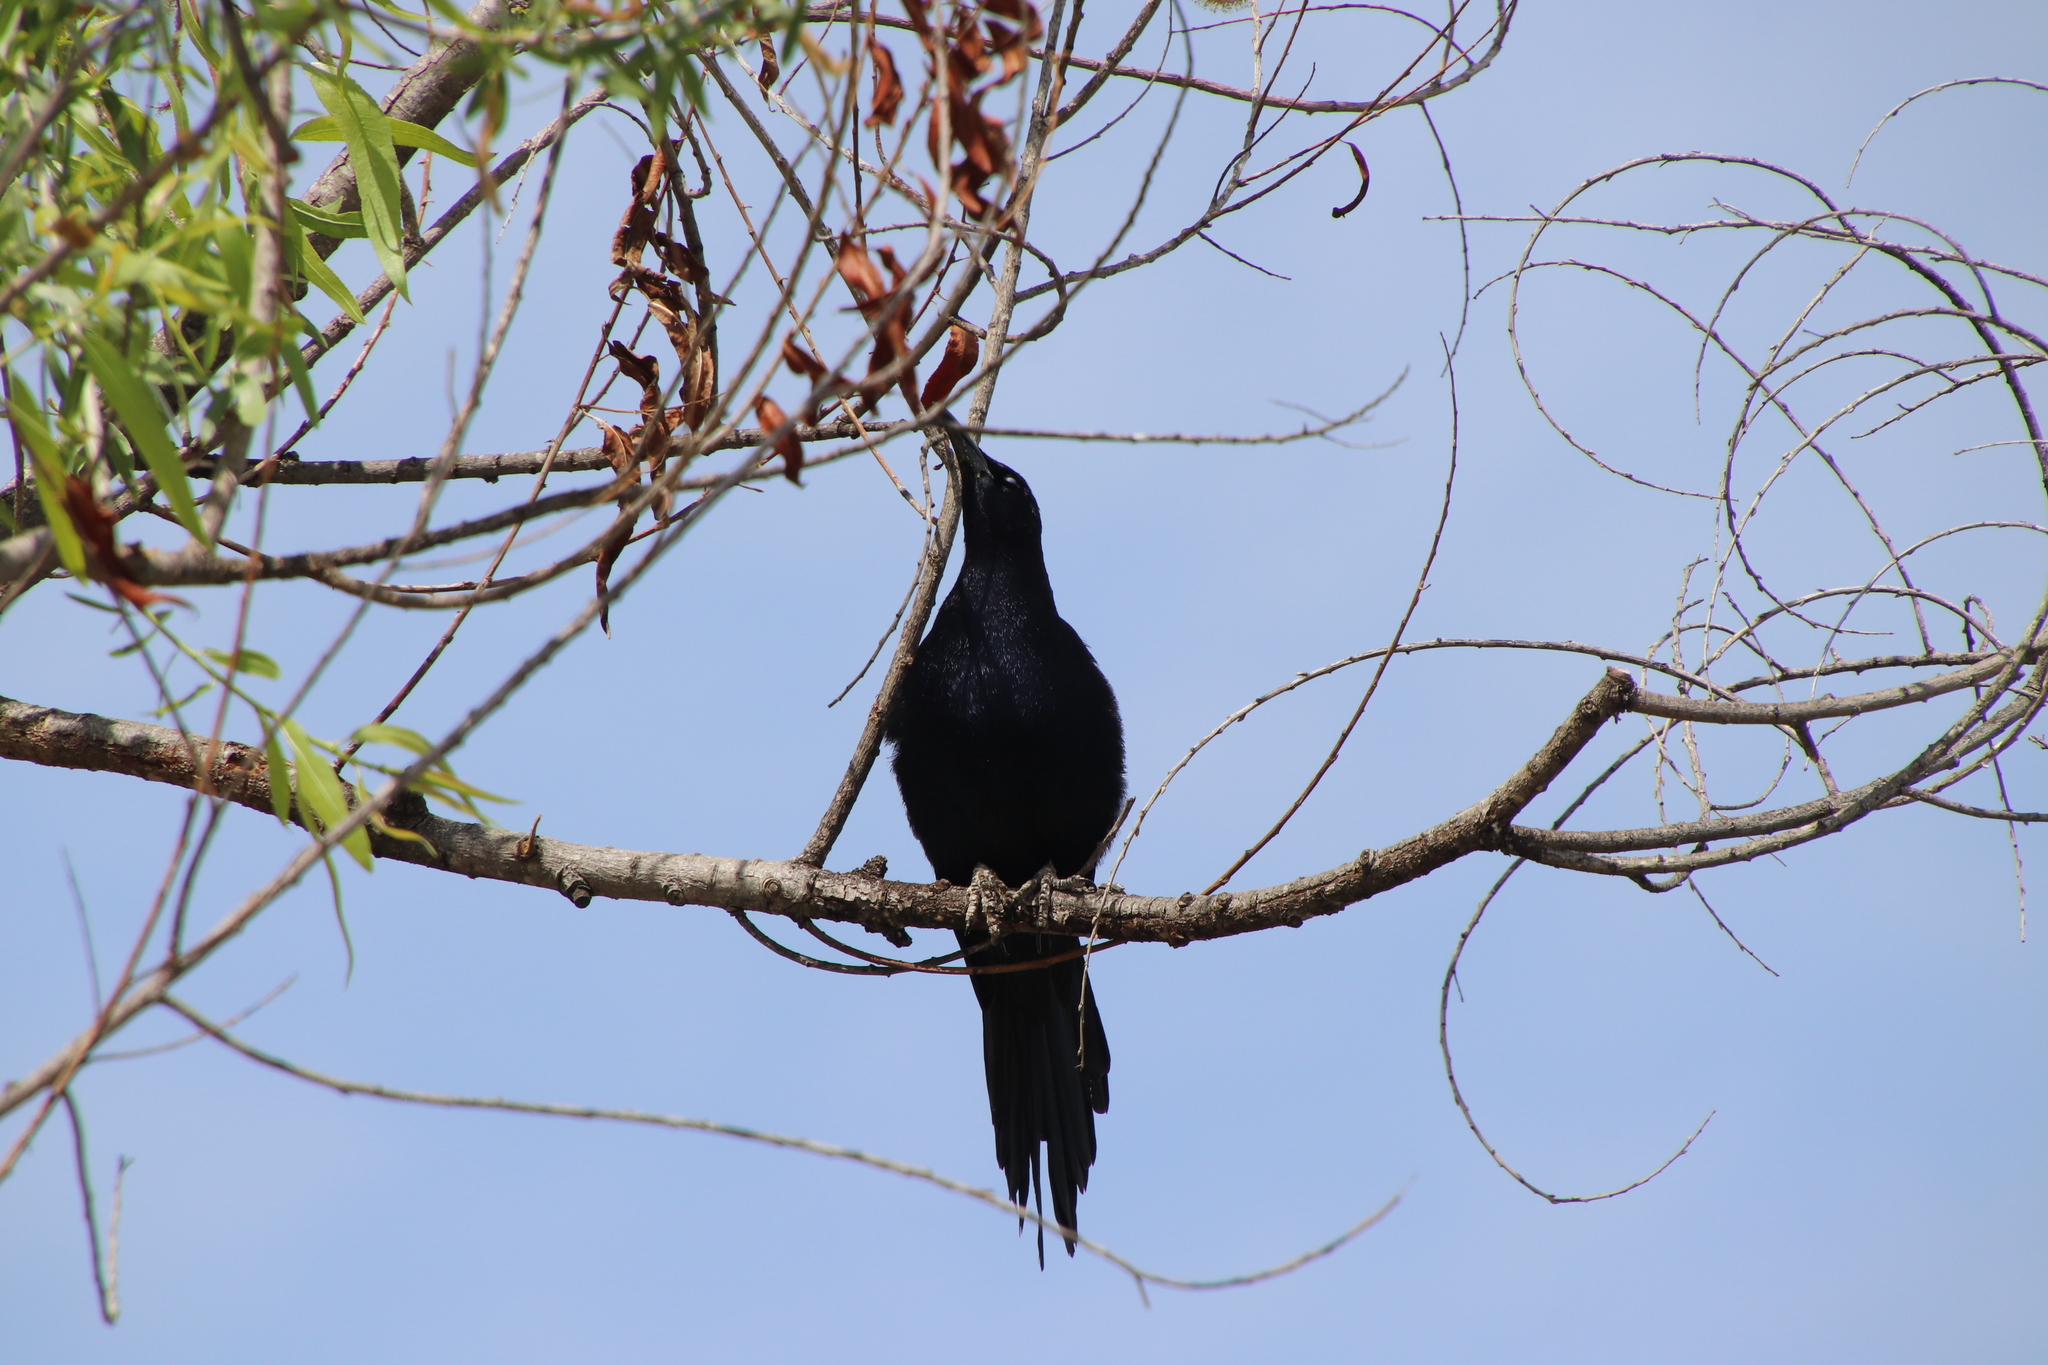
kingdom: Animalia
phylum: Chordata
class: Aves
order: Passeriformes
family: Icteridae
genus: Quiscalus
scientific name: Quiscalus mexicanus
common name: Great-tailed grackle
